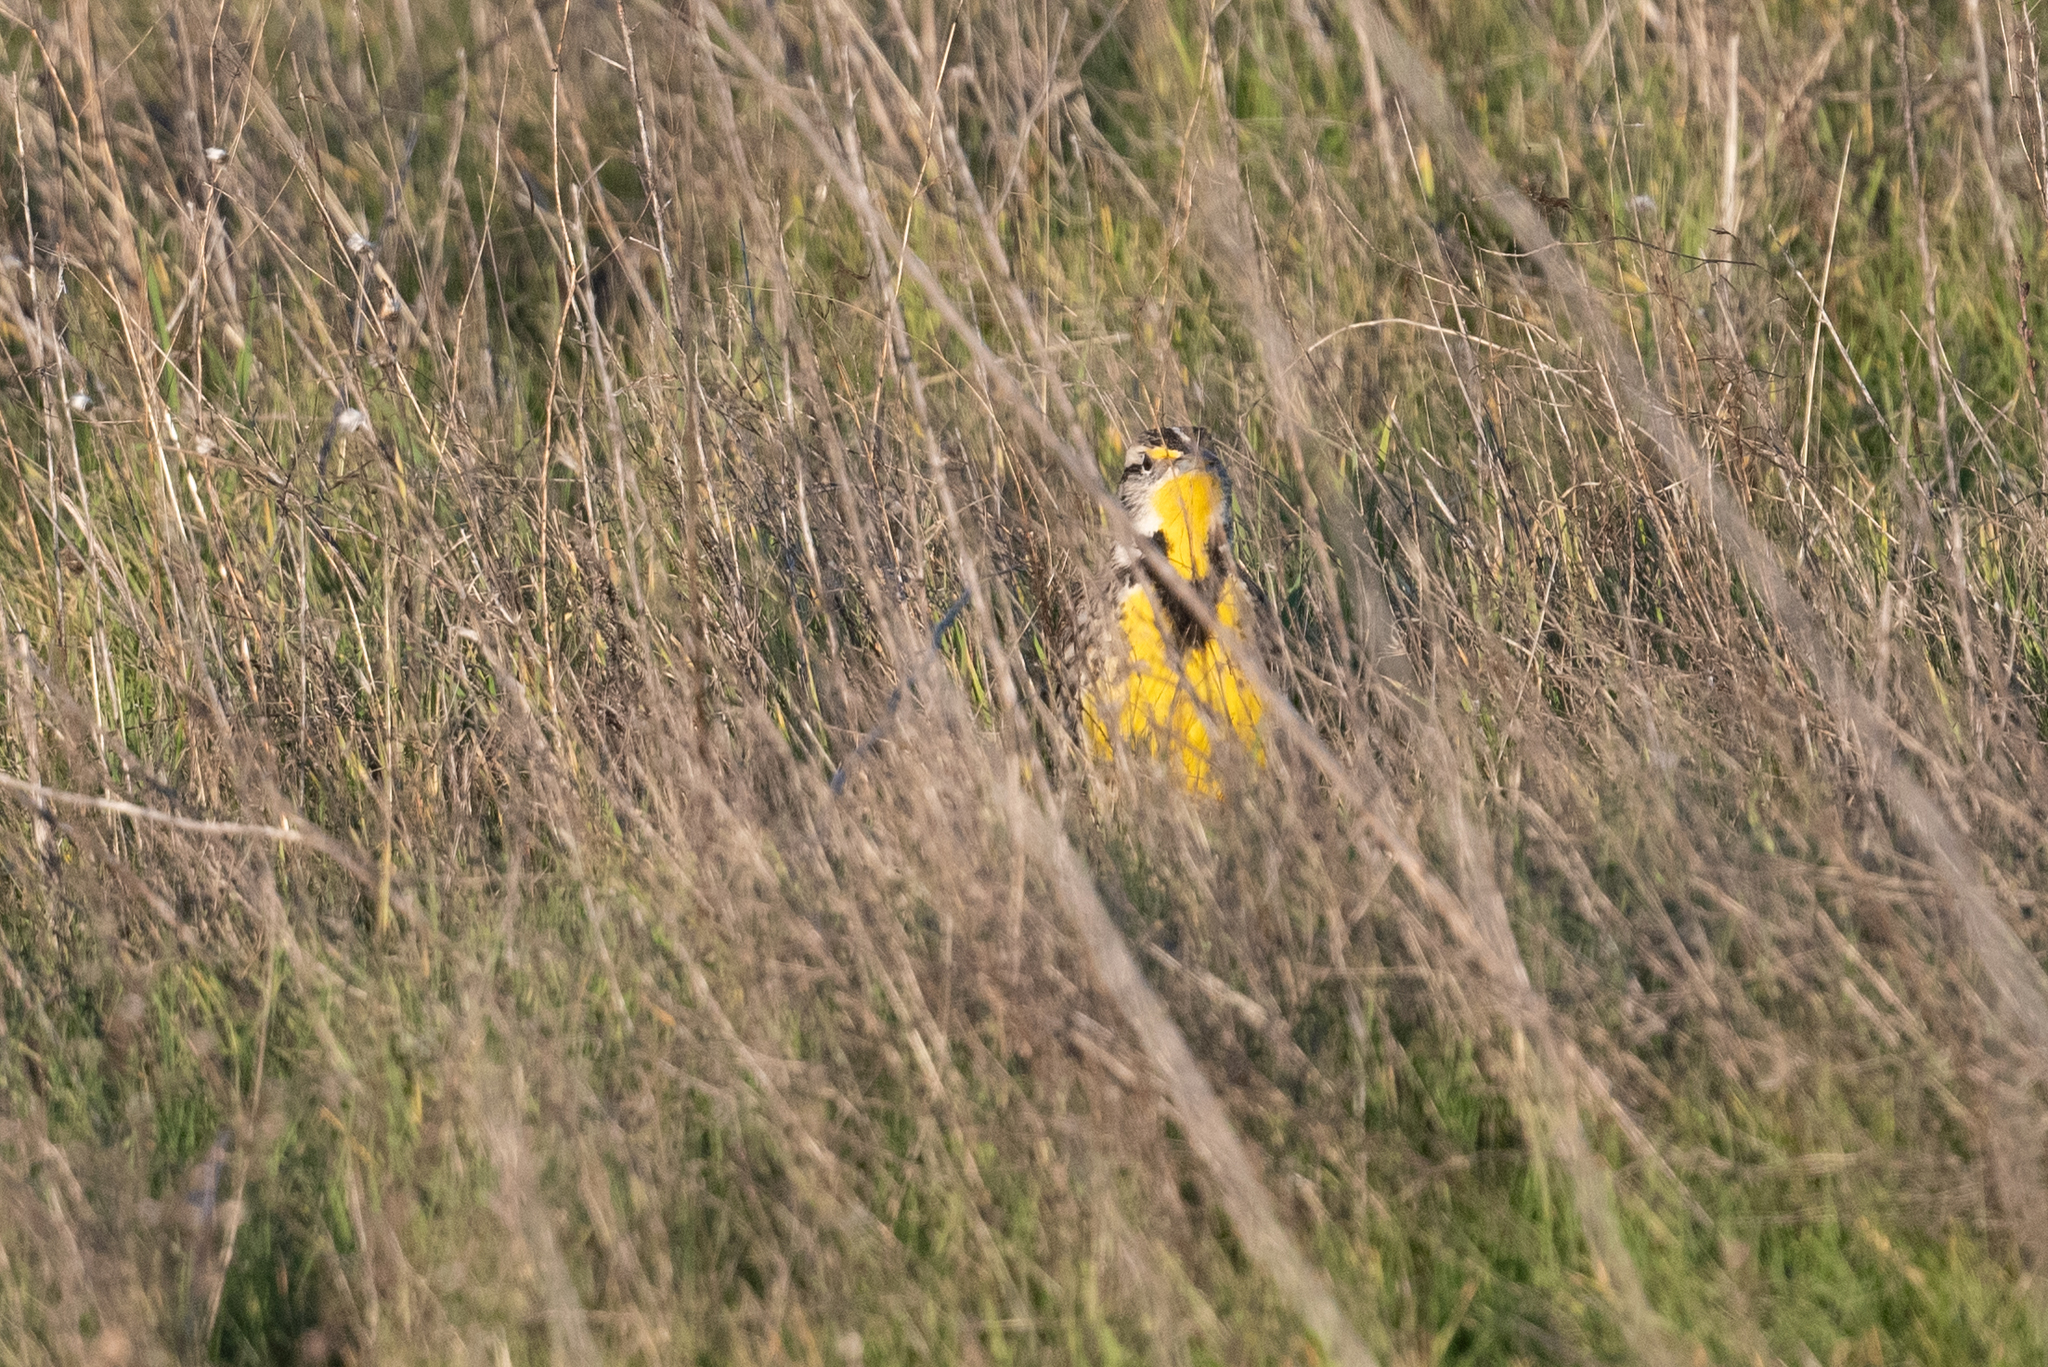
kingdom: Animalia
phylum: Chordata
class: Aves
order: Passeriformes
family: Icteridae
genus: Sturnella
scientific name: Sturnella neglecta
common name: Western meadowlark
